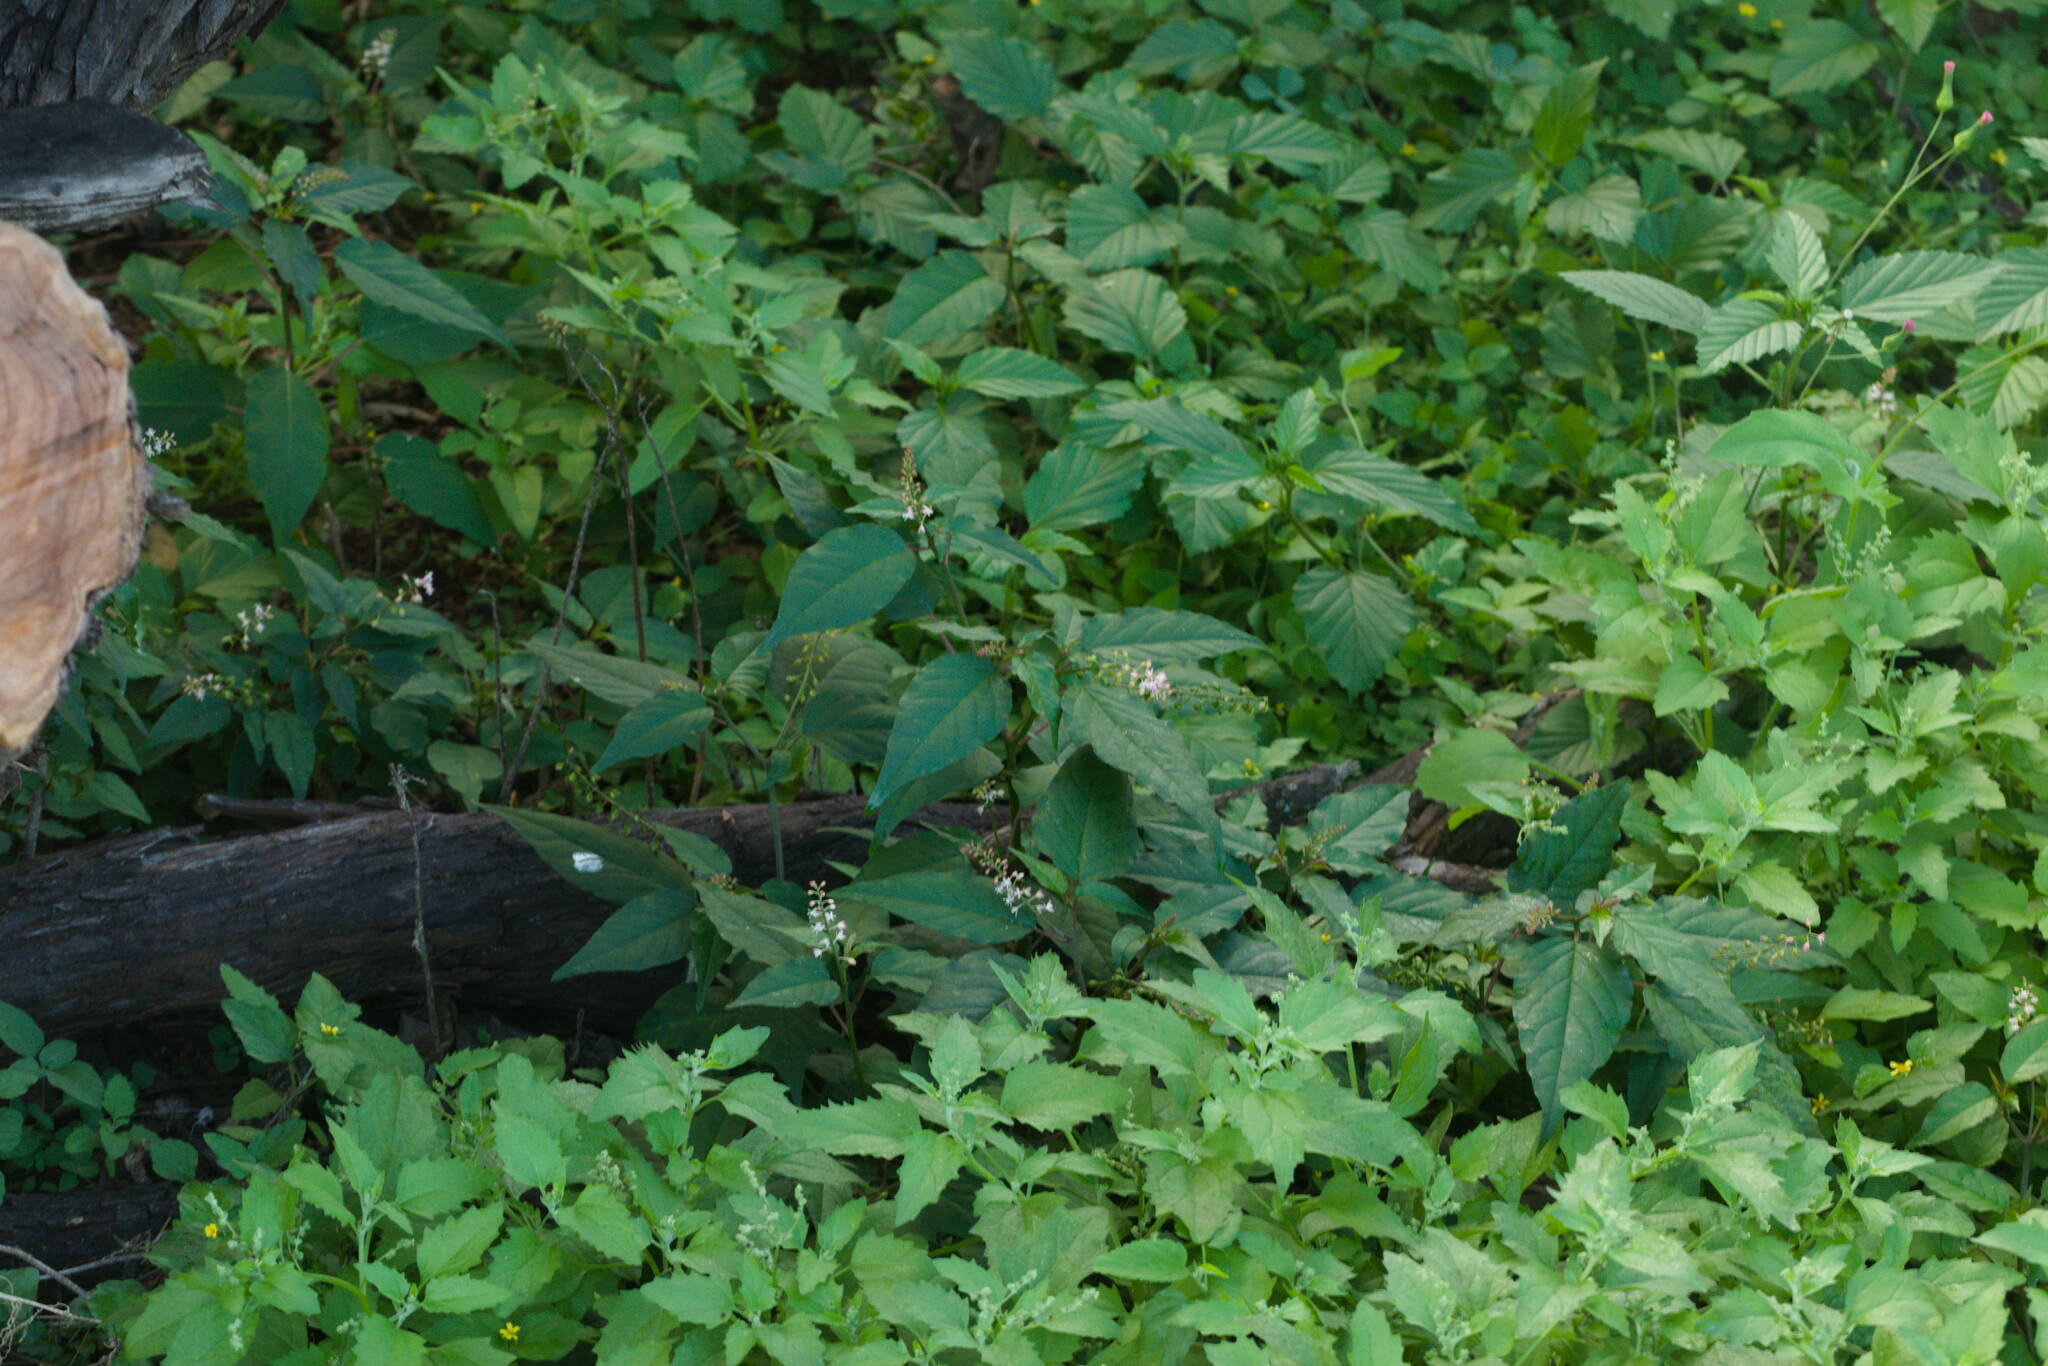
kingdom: Plantae
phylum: Tracheophyta
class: Magnoliopsida
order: Caryophyllales
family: Phytolaccaceae
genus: Rivina
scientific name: Rivina humilis
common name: Rougeplant
